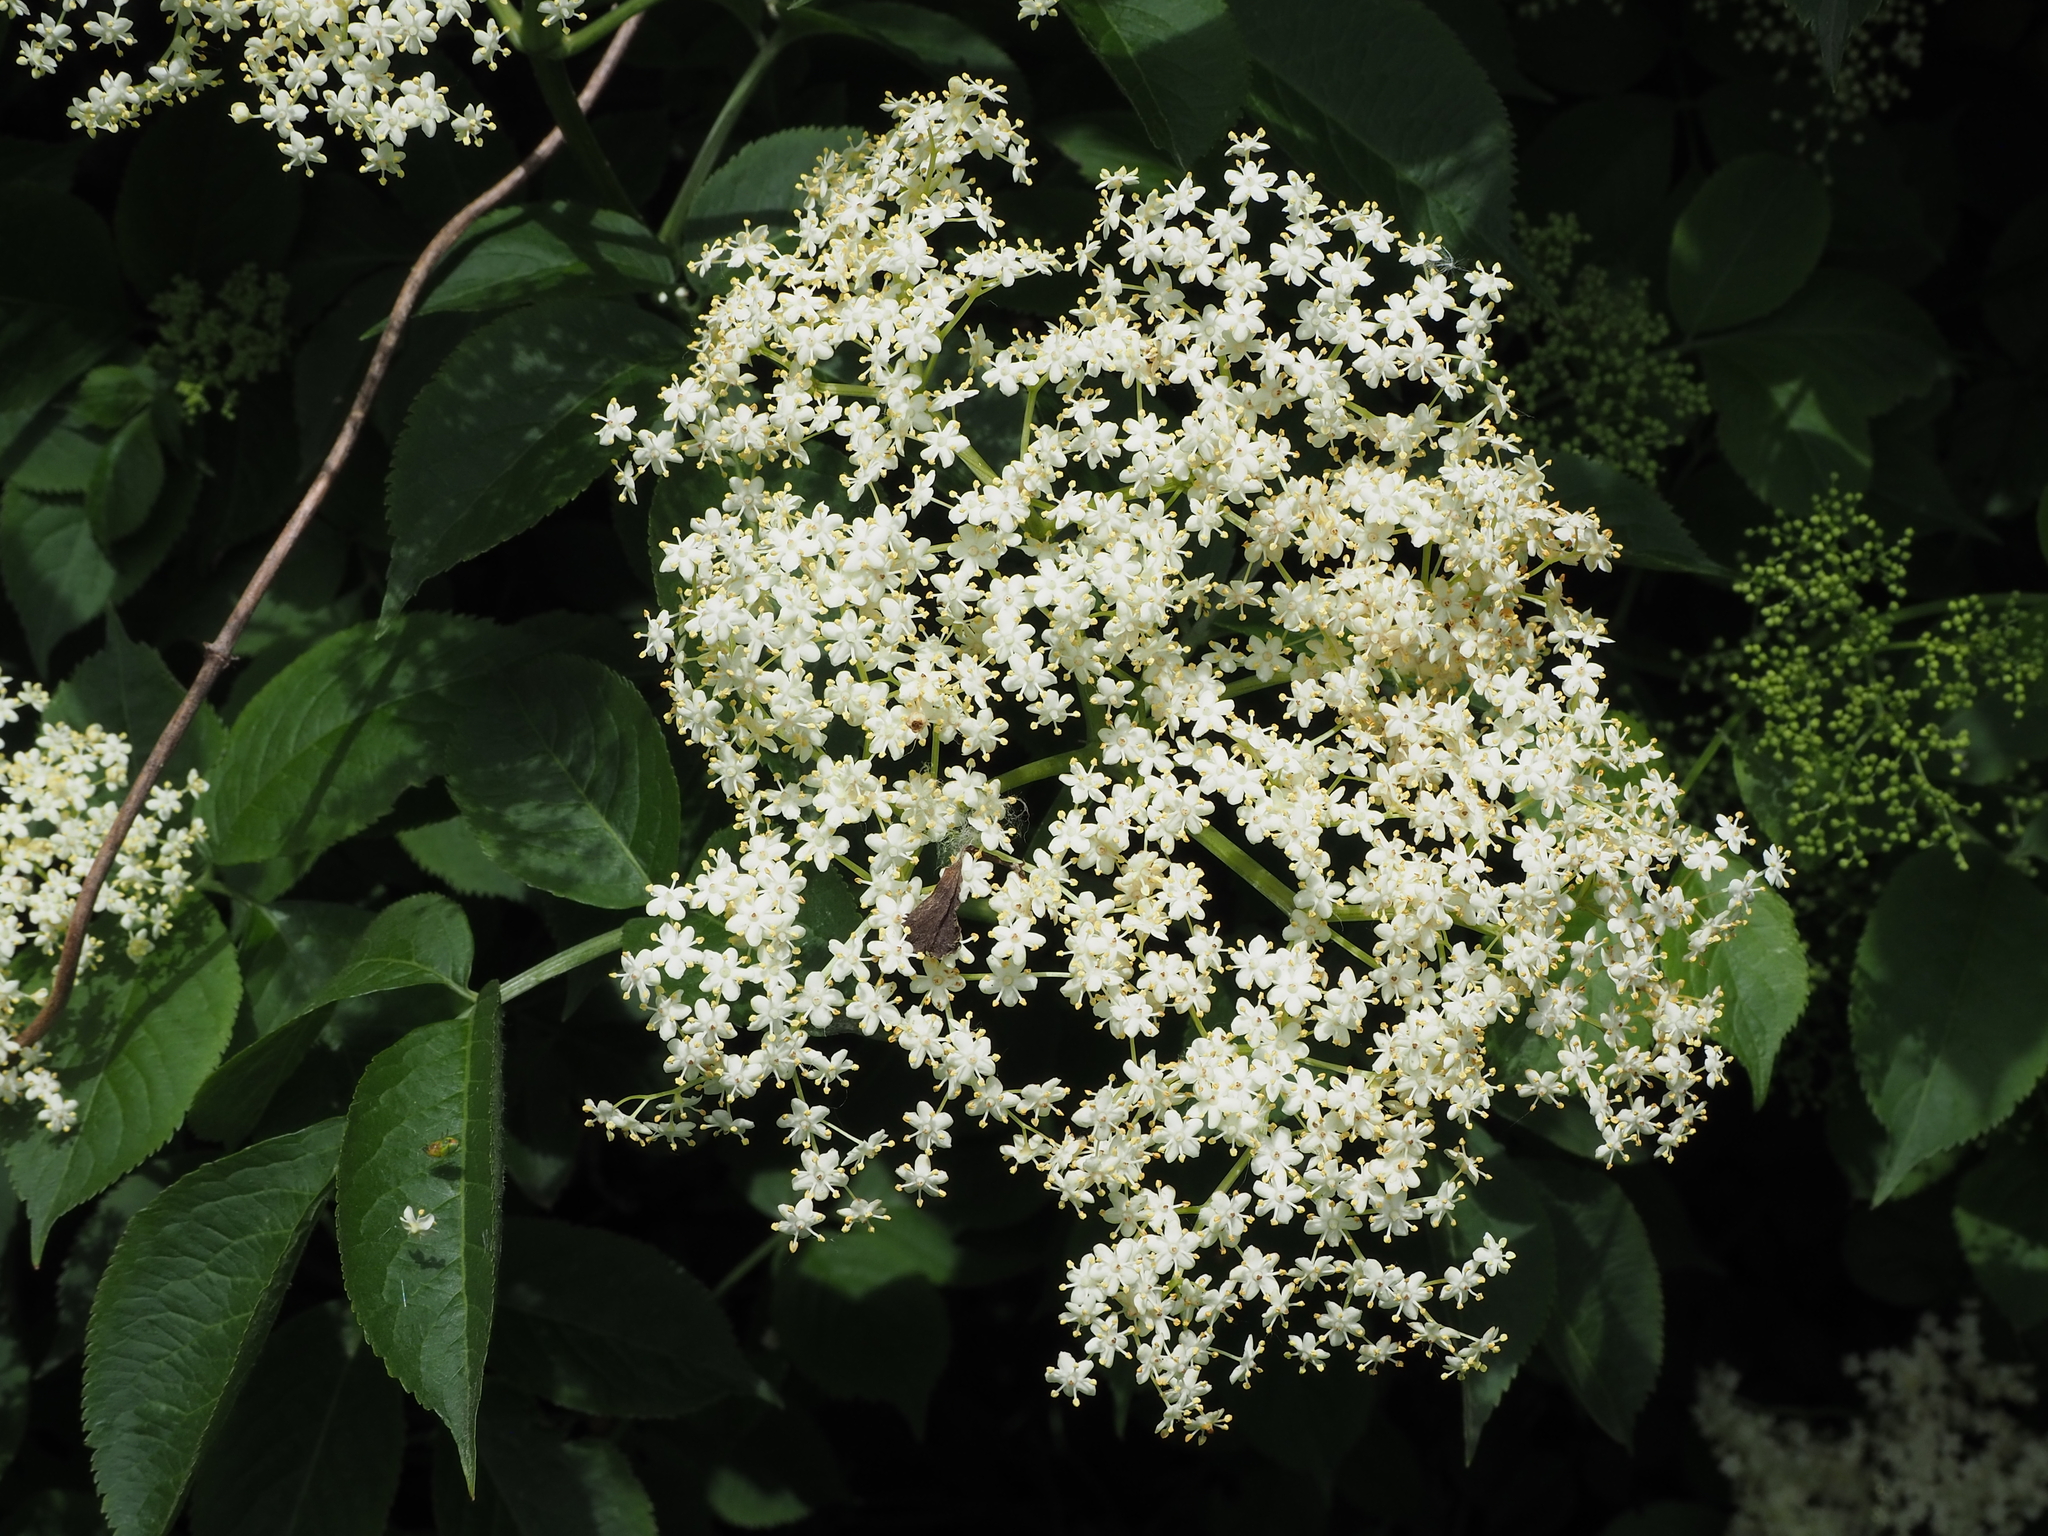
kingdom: Plantae
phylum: Tracheophyta
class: Magnoliopsida
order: Dipsacales
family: Viburnaceae
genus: Sambucus
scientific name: Sambucus nigra
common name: Elder
